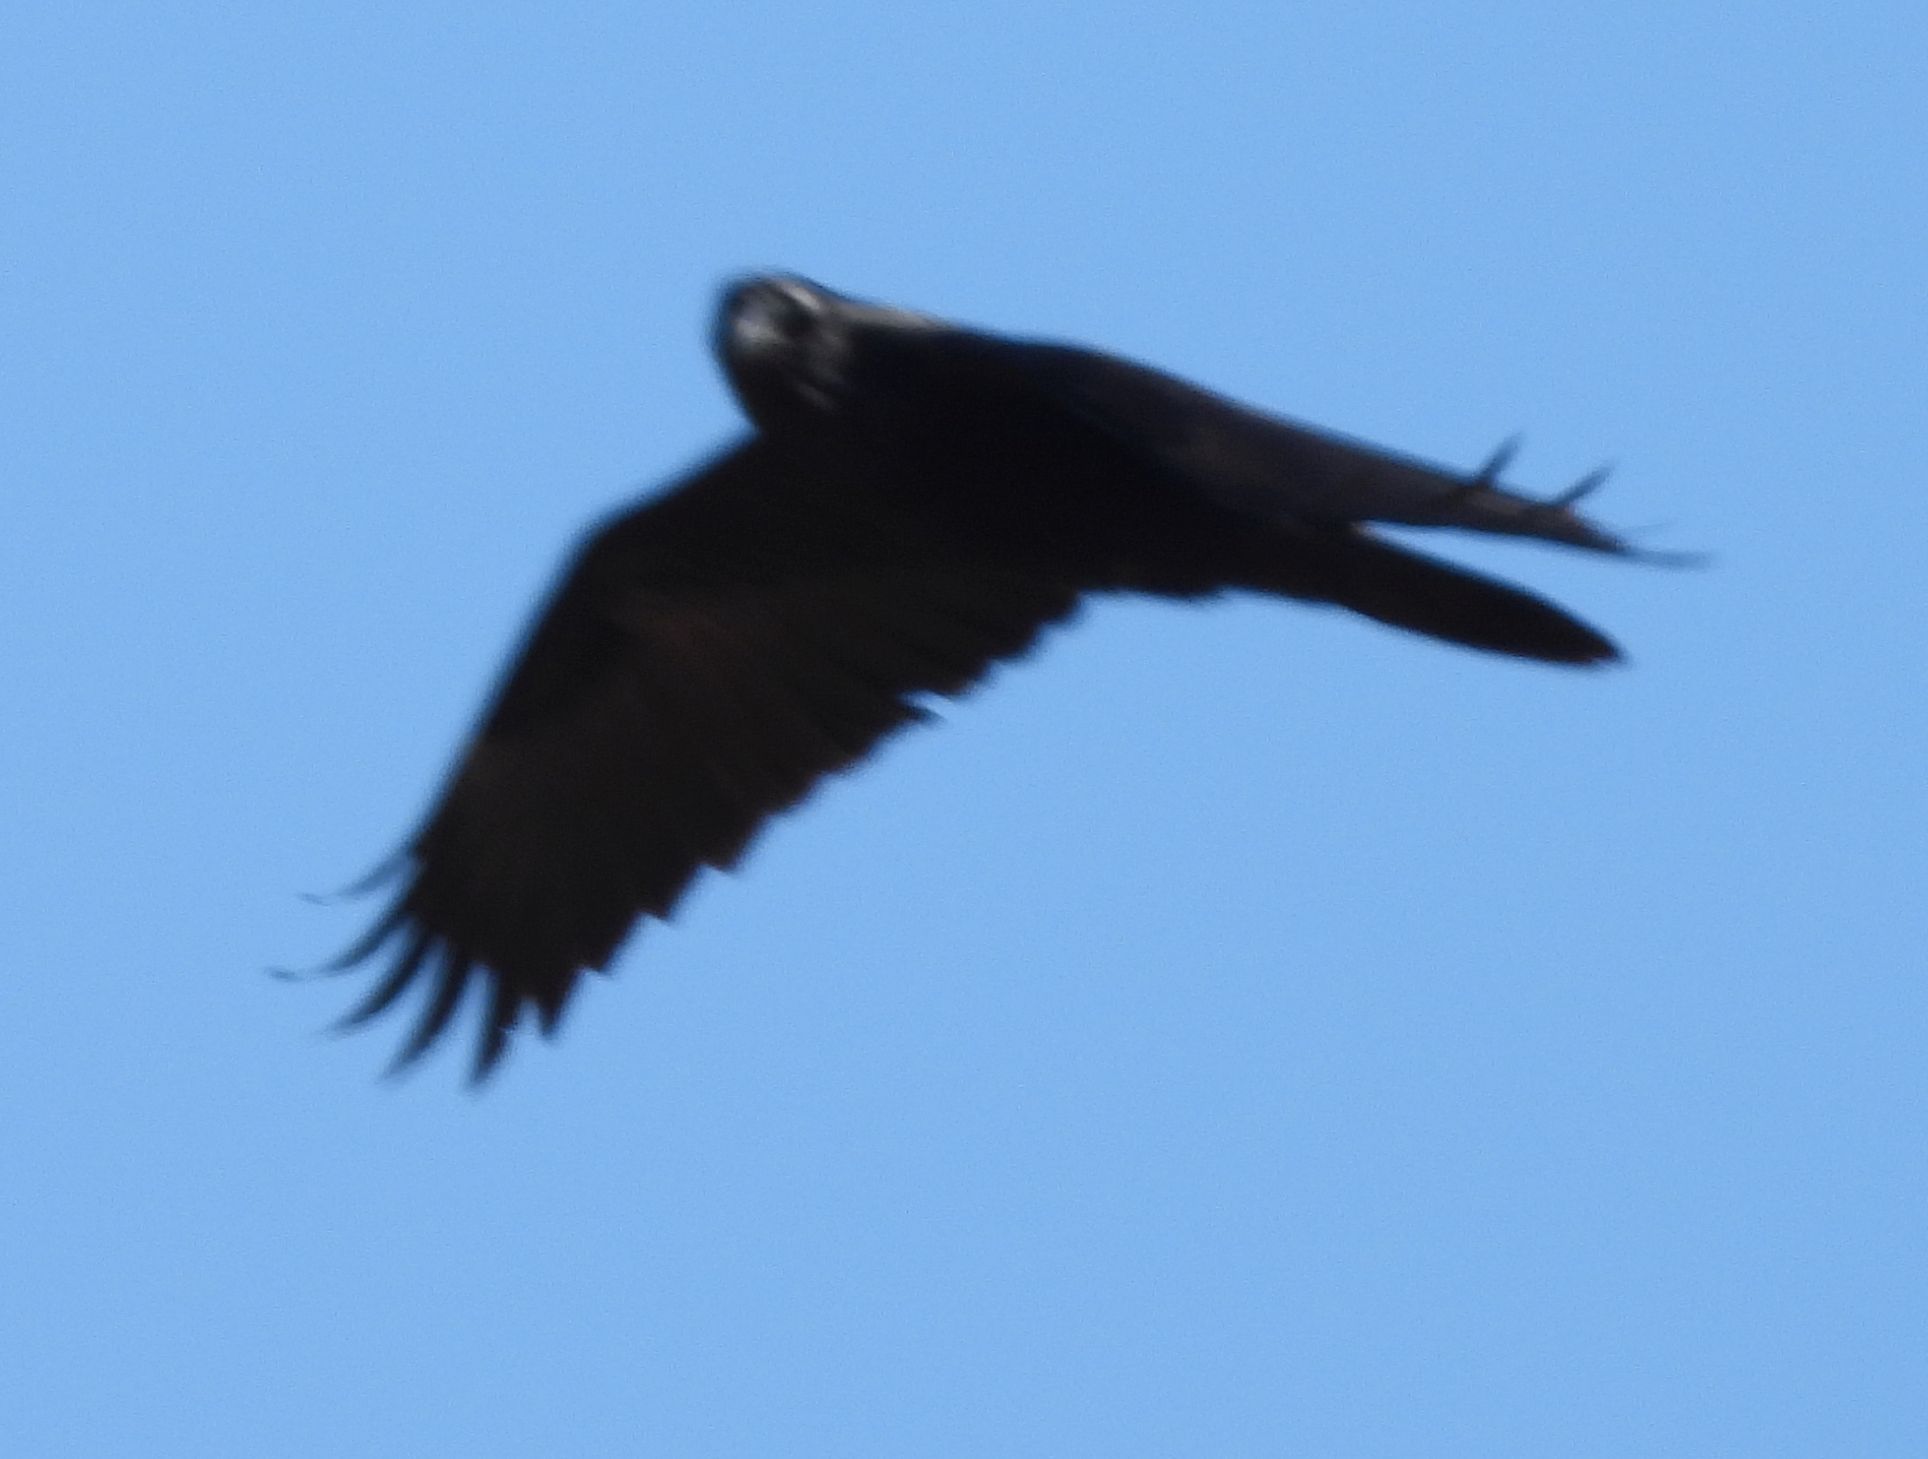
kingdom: Animalia
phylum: Chordata
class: Aves
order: Passeriformes
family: Corvidae
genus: Corvus
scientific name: Corvus corax
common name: Common raven
